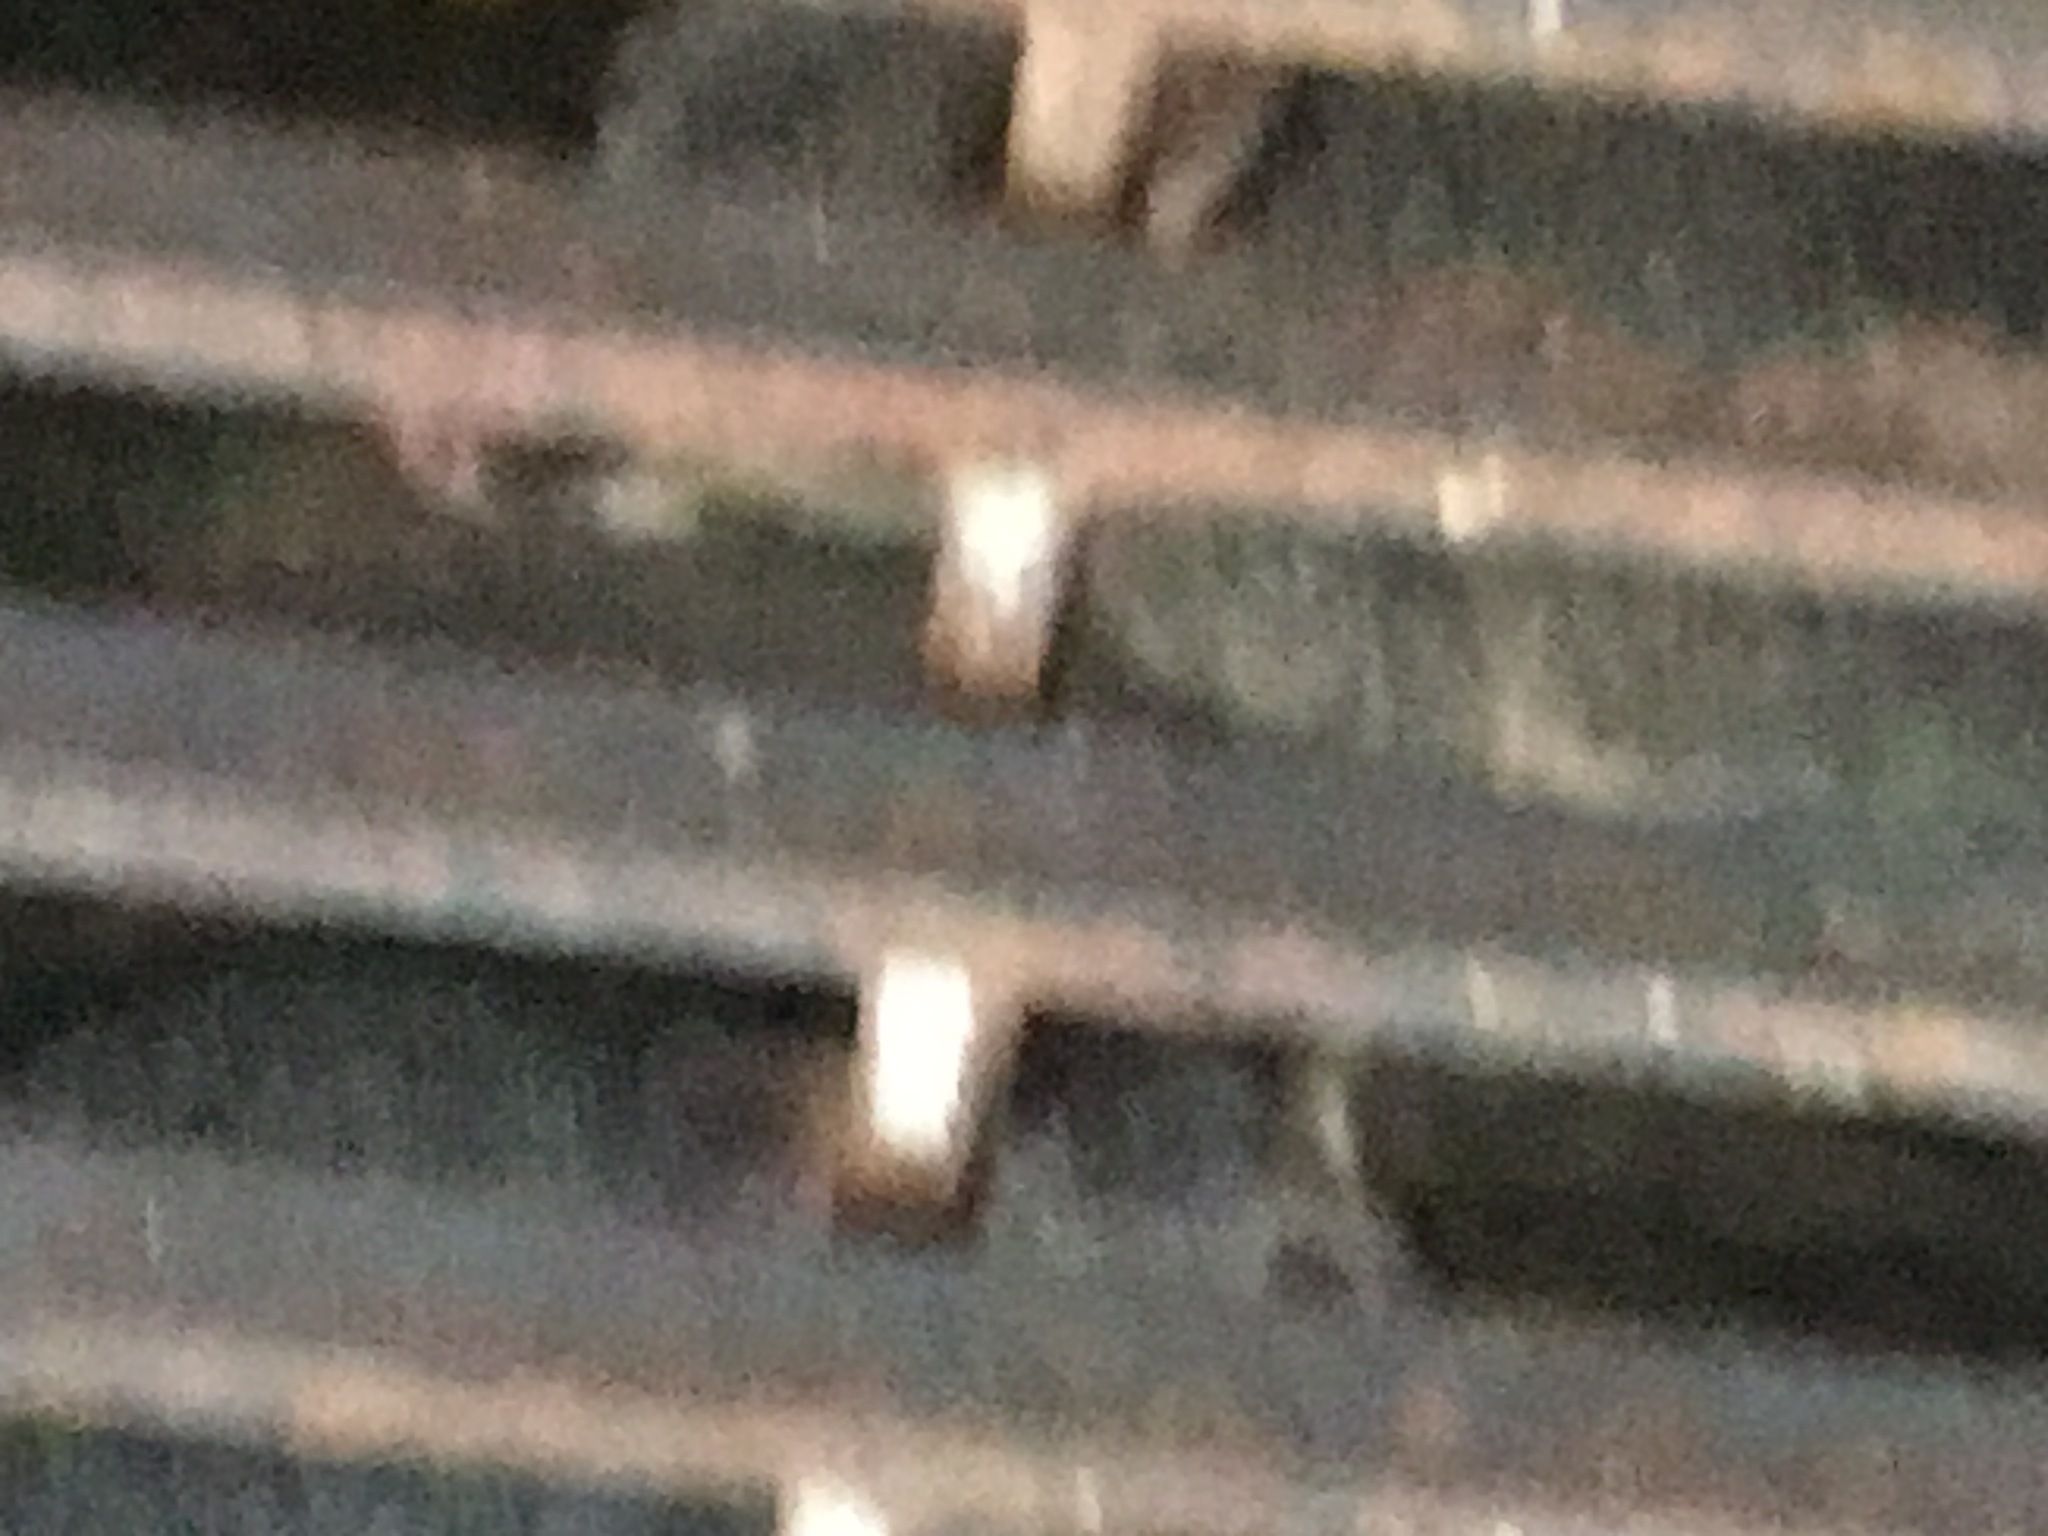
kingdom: Animalia
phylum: Chordata
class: Mammalia
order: Diprotodontia
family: Phalangeridae
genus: Trichosurus
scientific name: Trichosurus vulpecula
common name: Common brushtail
